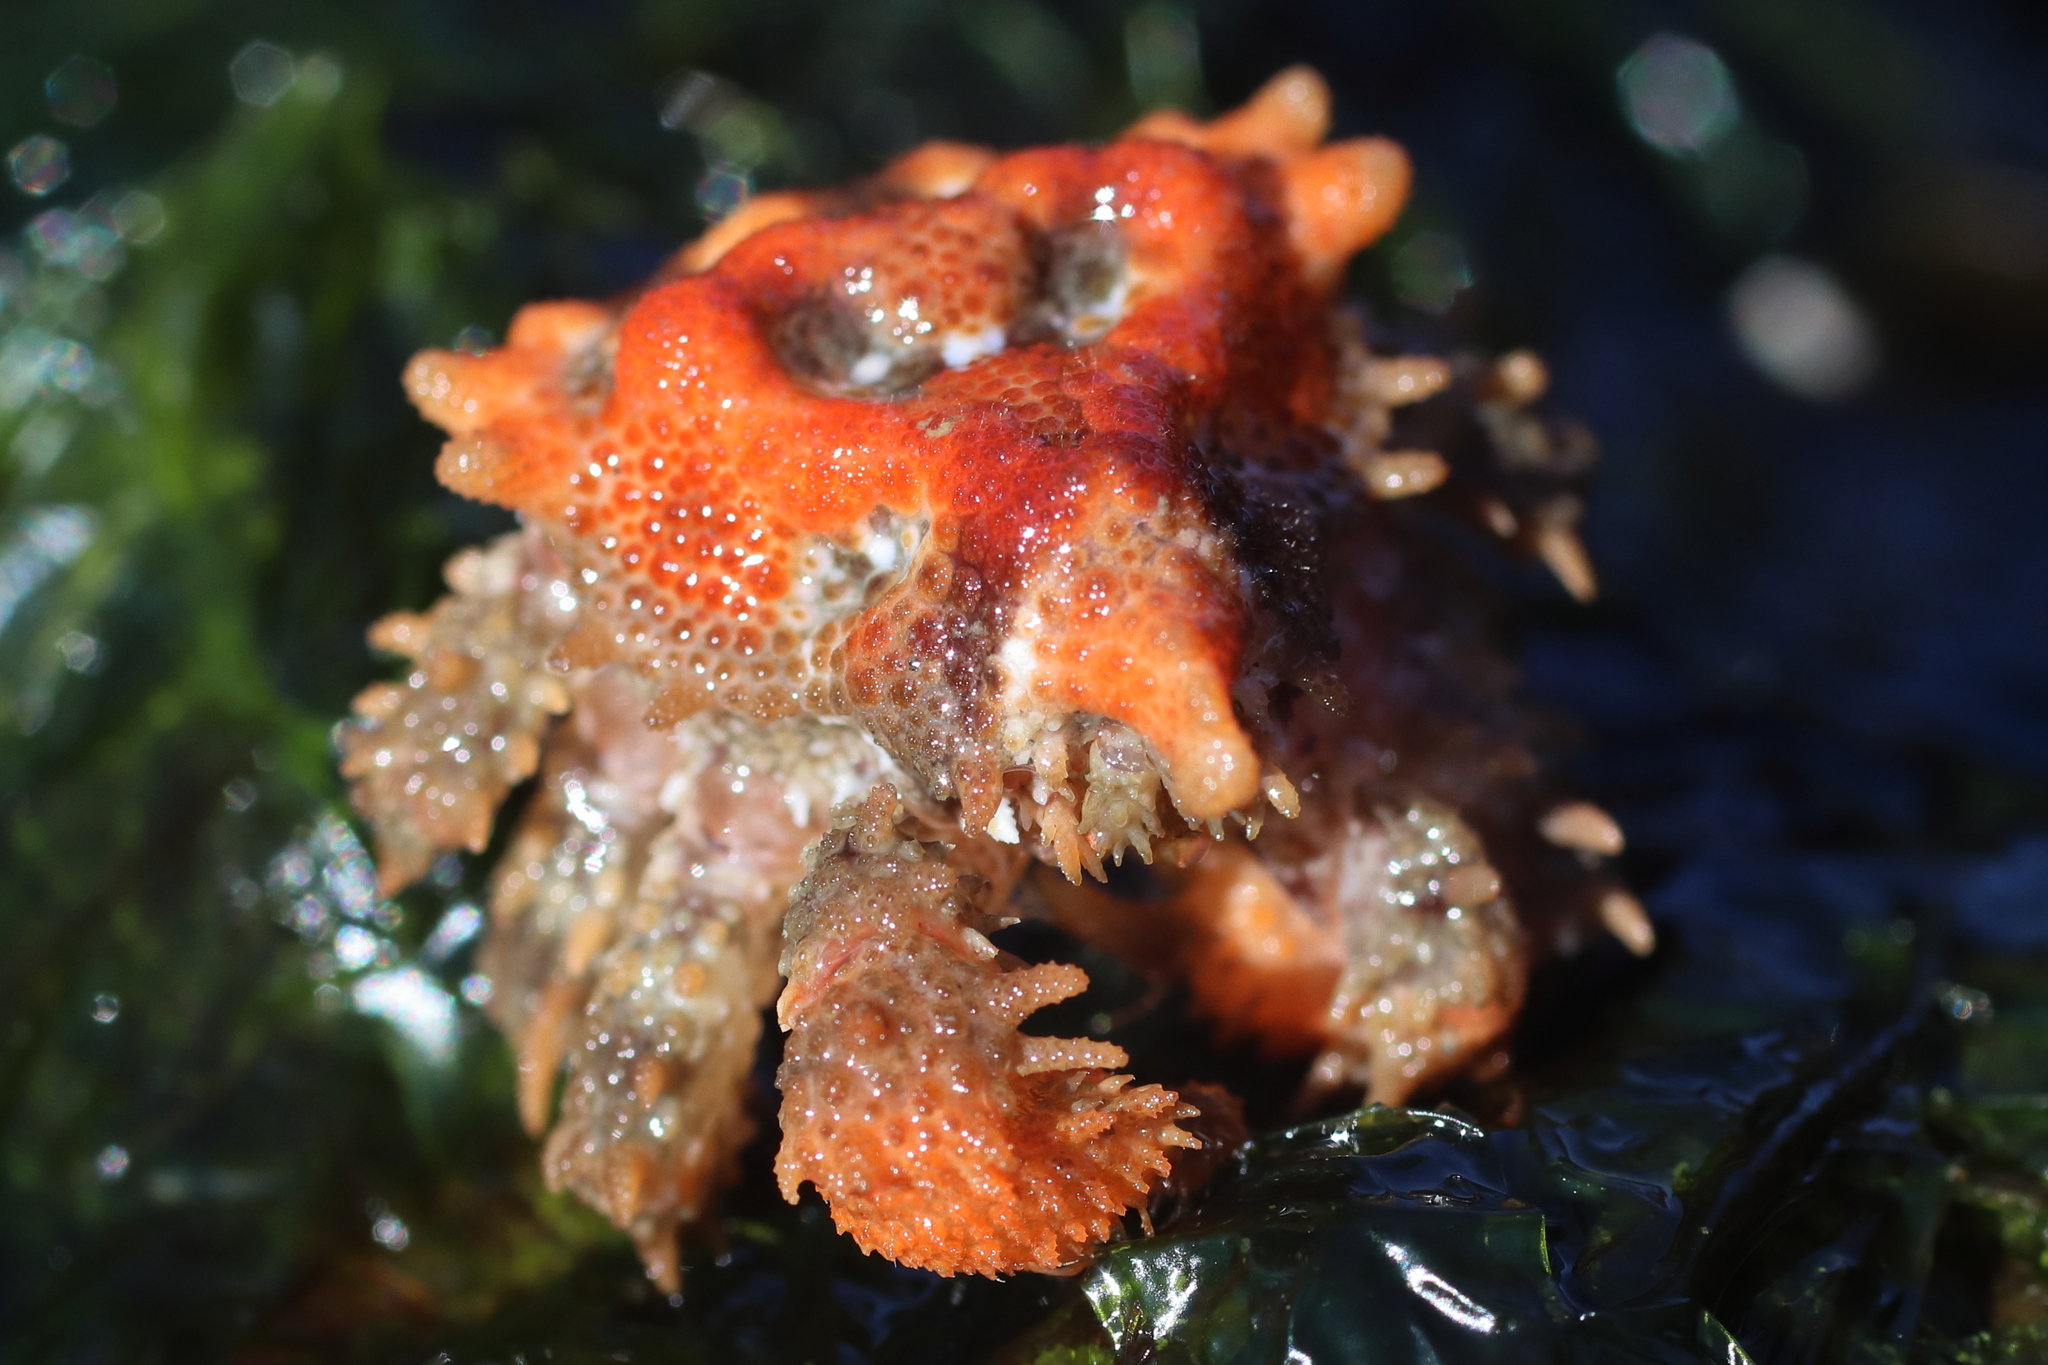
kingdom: Animalia
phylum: Arthropoda
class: Malacostraca
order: Decapoda
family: Lithodidae
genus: Phyllolithodes
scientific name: Phyllolithodes papillosus
